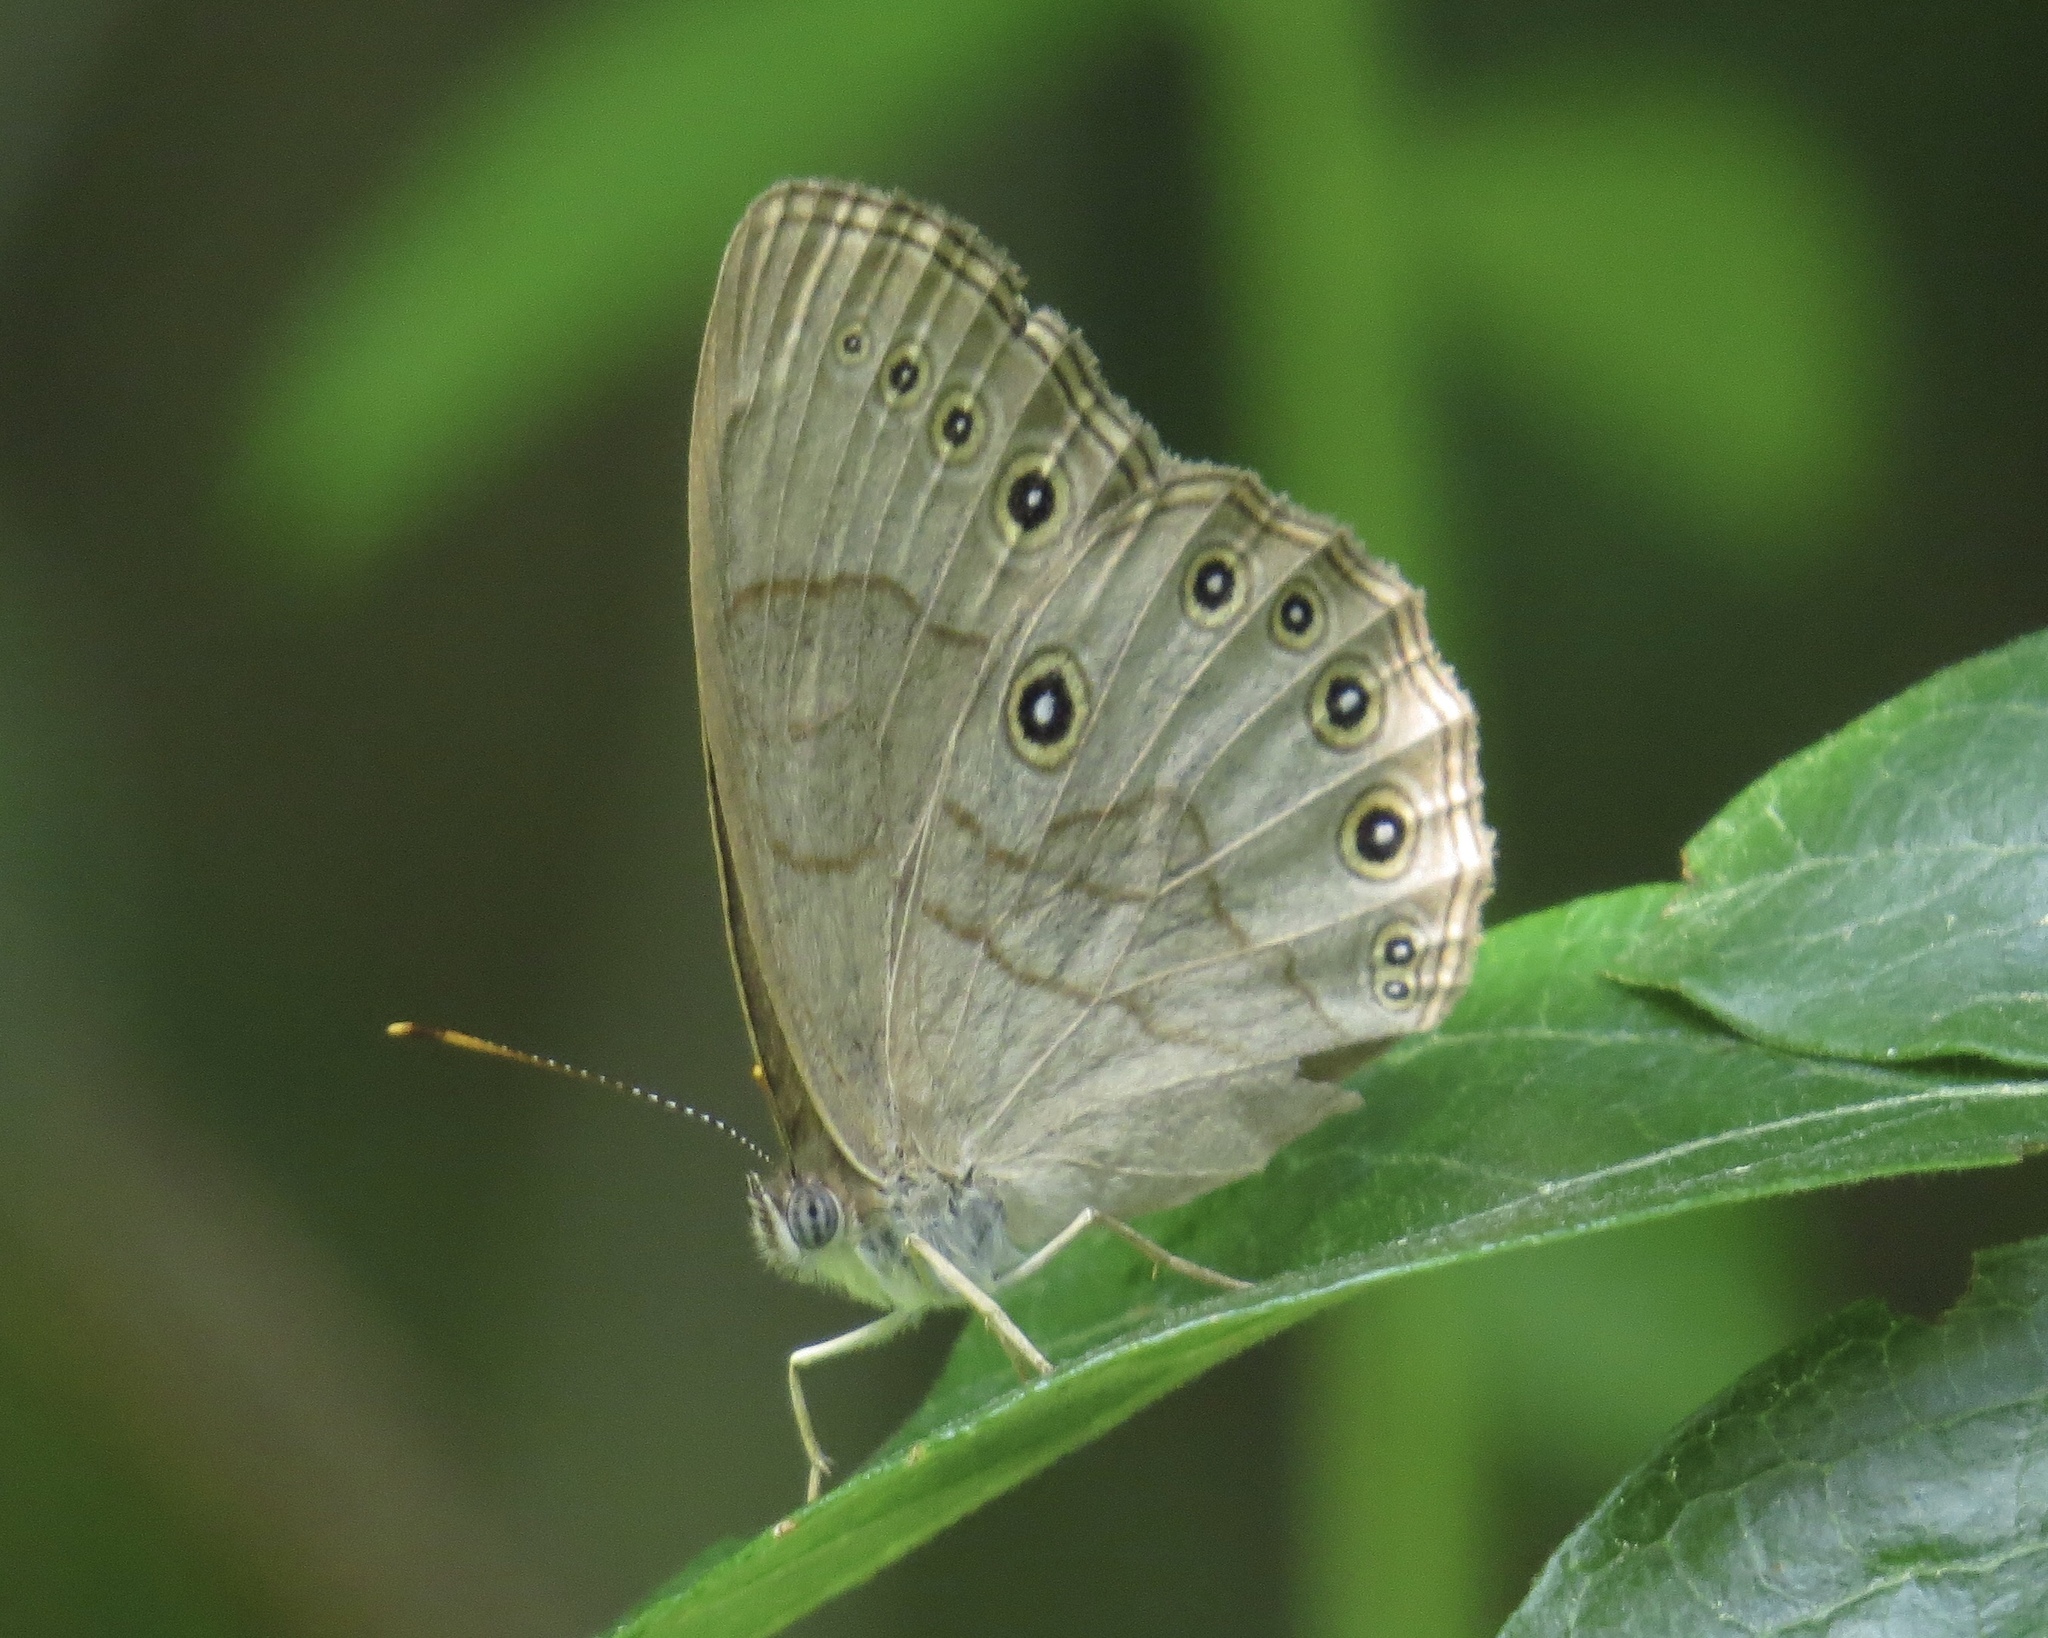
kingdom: Animalia
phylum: Arthropoda
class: Insecta
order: Lepidoptera
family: Nymphalidae
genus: Lethe
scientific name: Lethe eurydice
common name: Eyed brown
